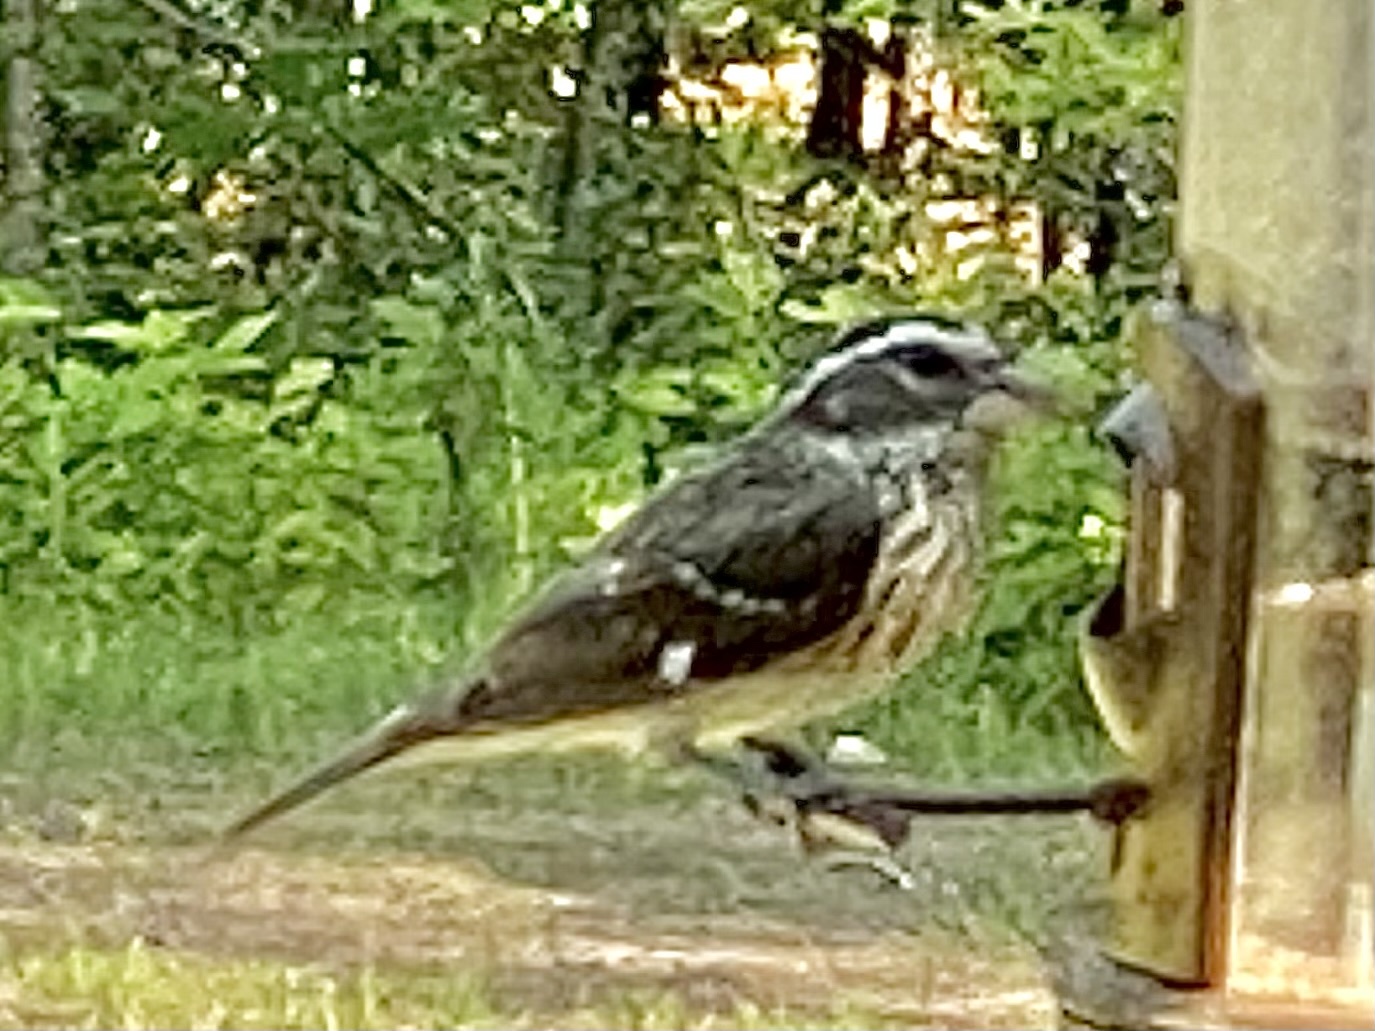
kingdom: Animalia
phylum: Chordata
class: Aves
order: Passeriformes
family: Cardinalidae
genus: Pheucticus
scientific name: Pheucticus ludovicianus
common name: Rose-breasted grosbeak
